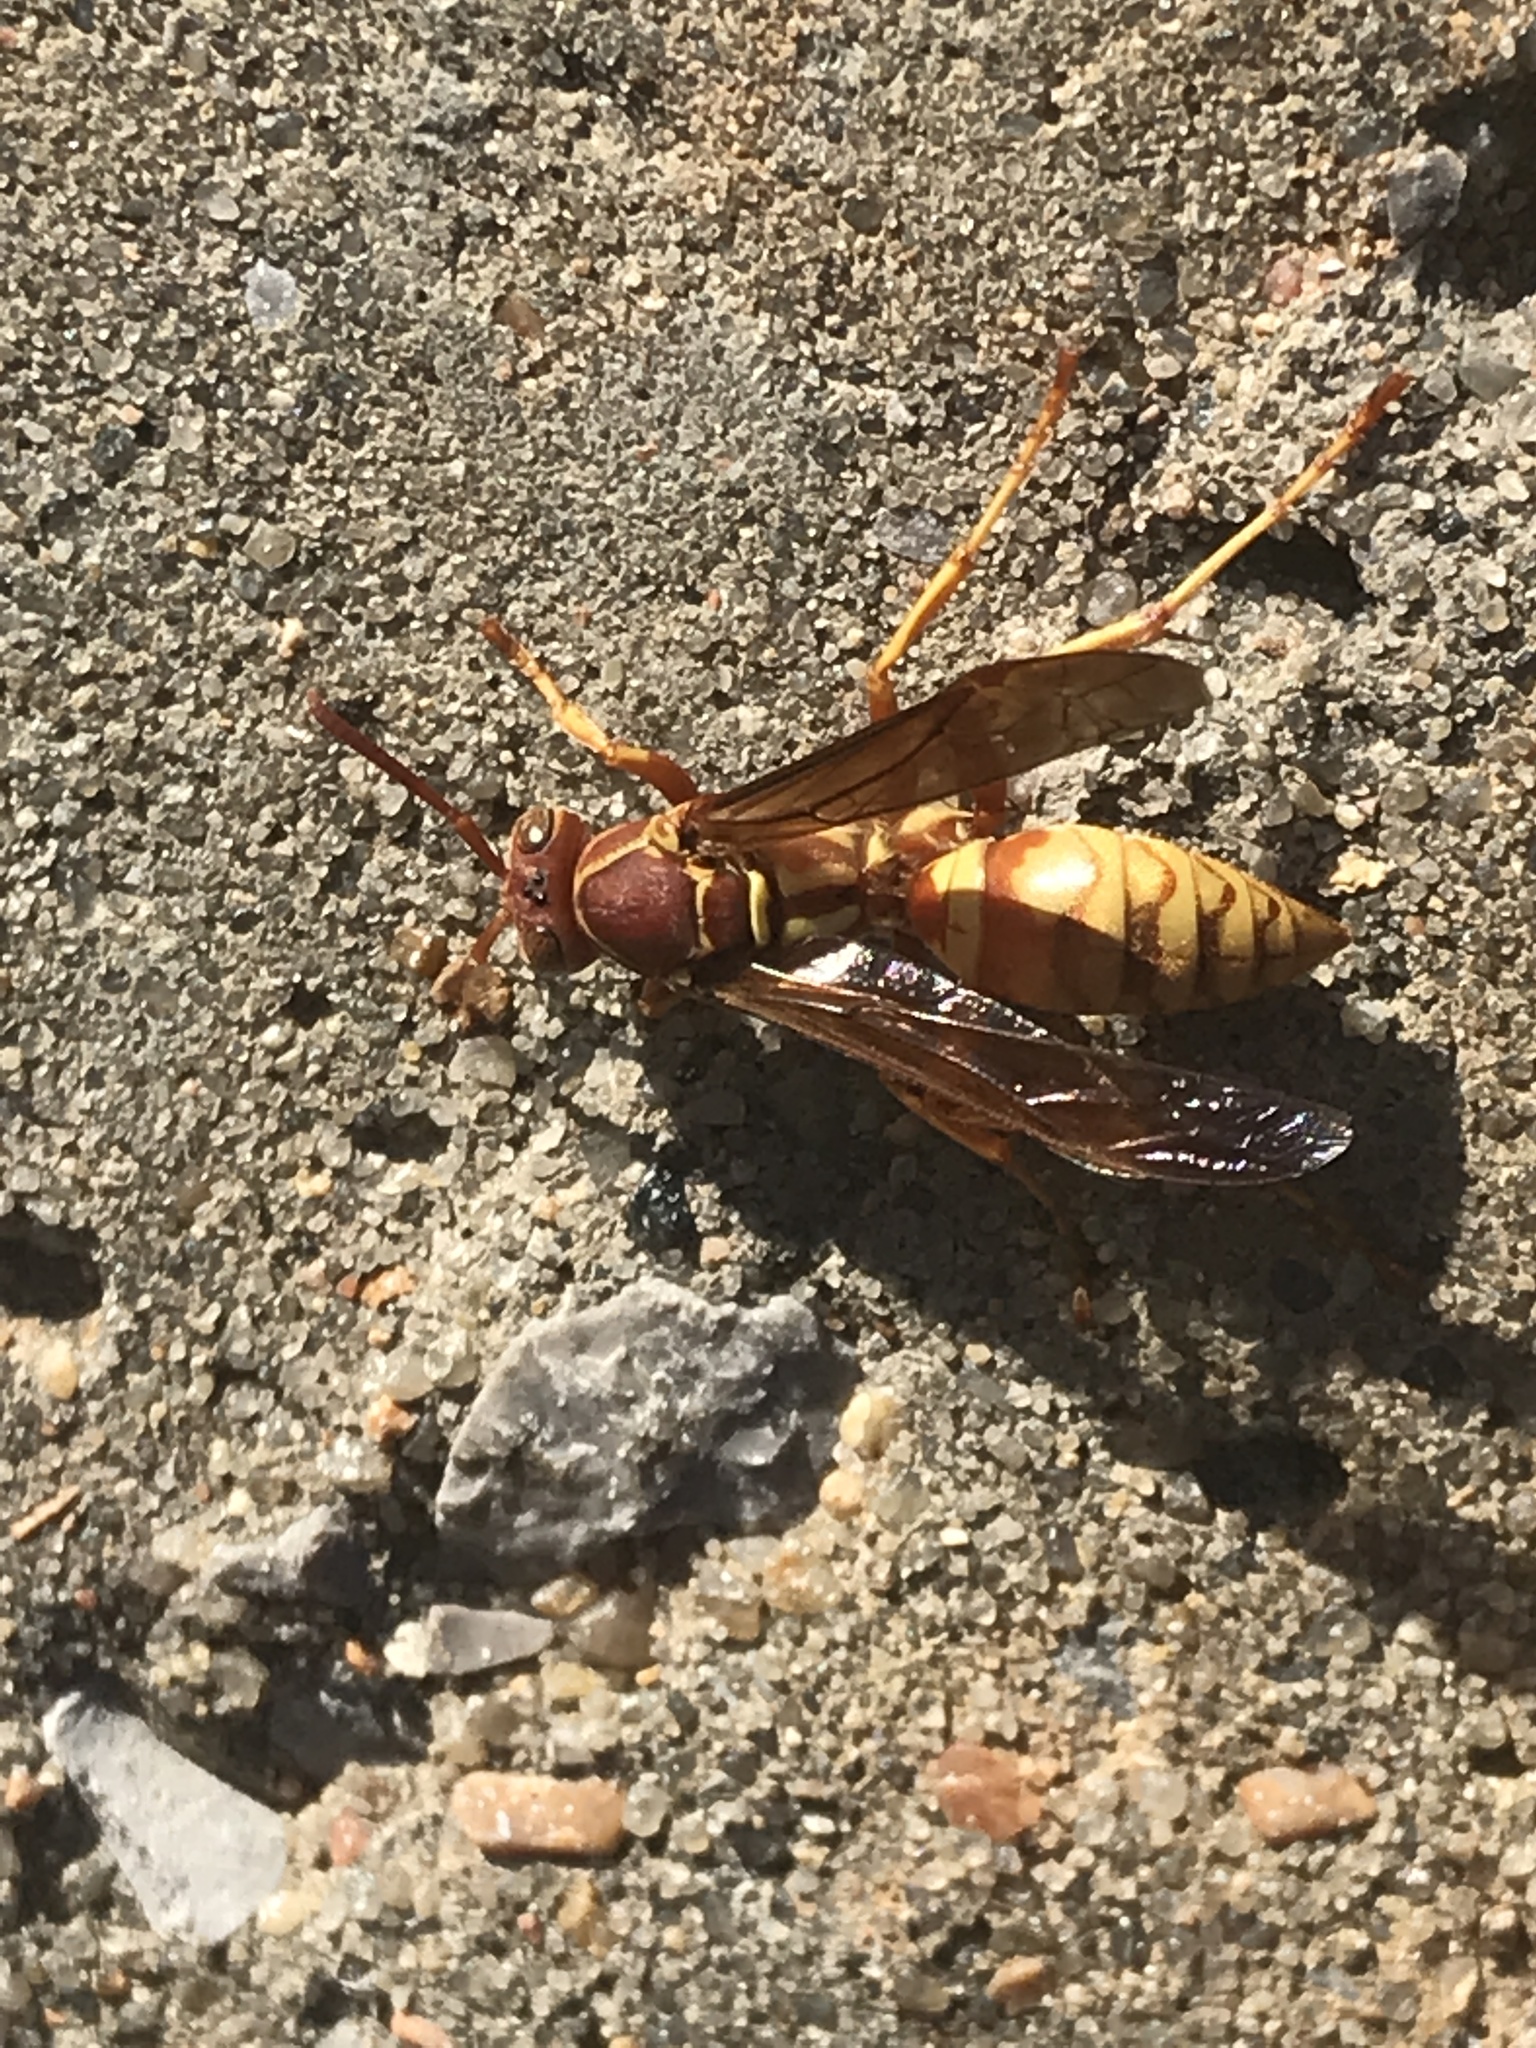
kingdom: Animalia
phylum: Arthropoda
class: Insecta
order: Hymenoptera
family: Eumenidae
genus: Polistes
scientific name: Polistes apachus
